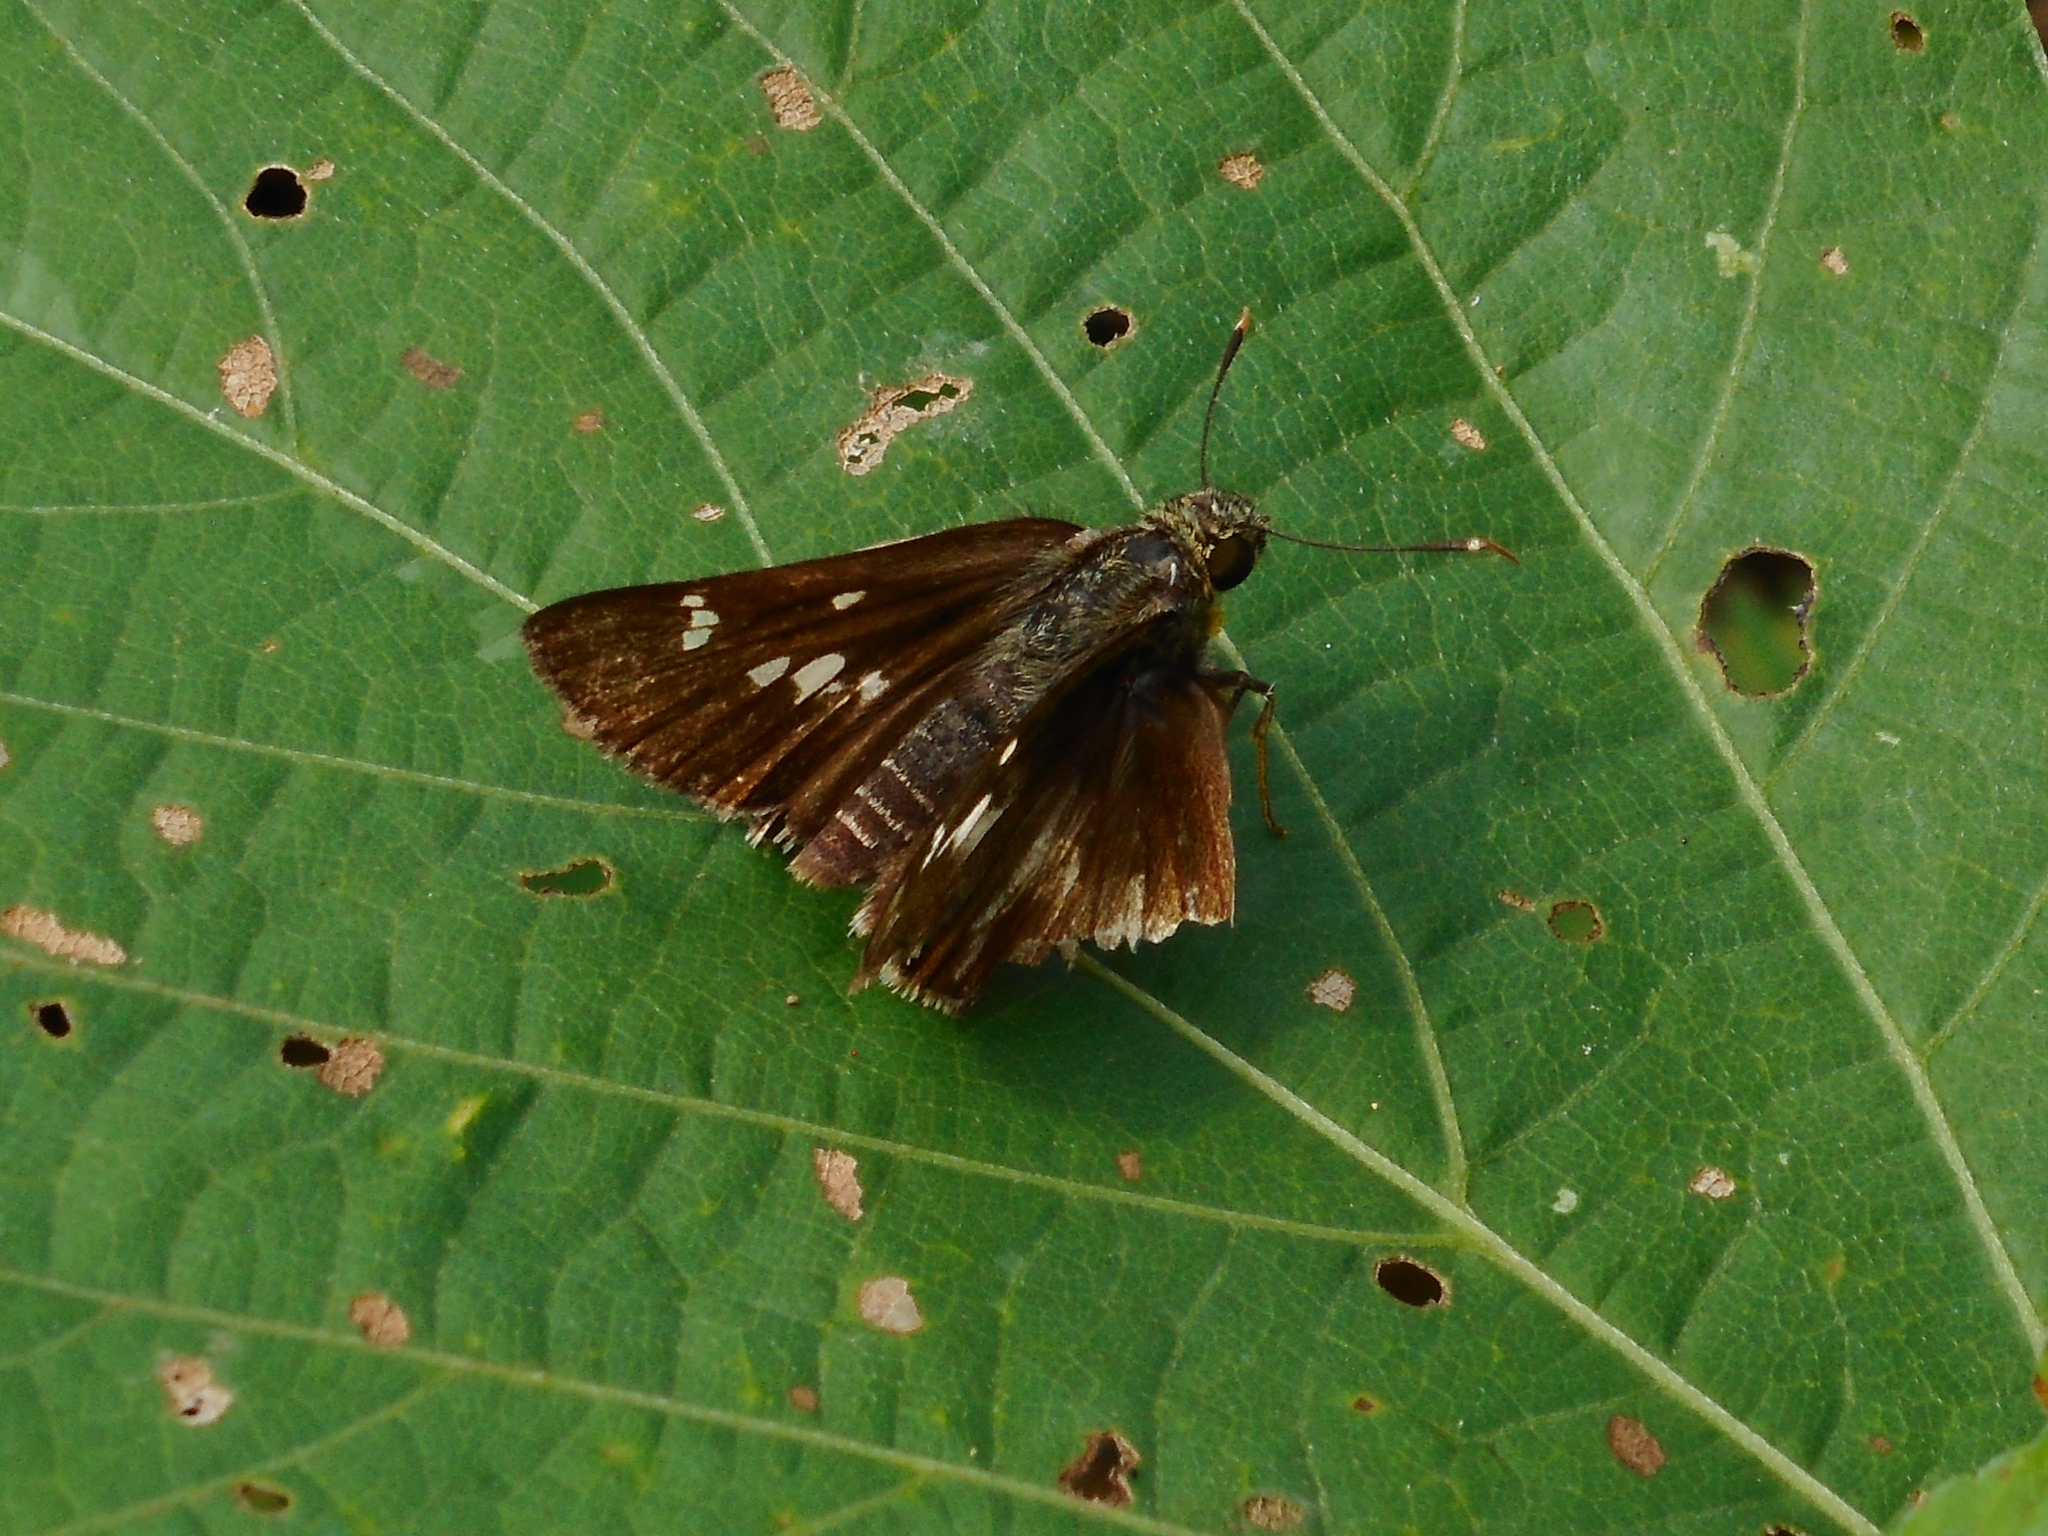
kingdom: Animalia
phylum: Arthropoda
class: Insecta
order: Lepidoptera
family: Hesperiidae
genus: Hyarotis
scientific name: Hyarotis adrastus
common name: Tree flitter
